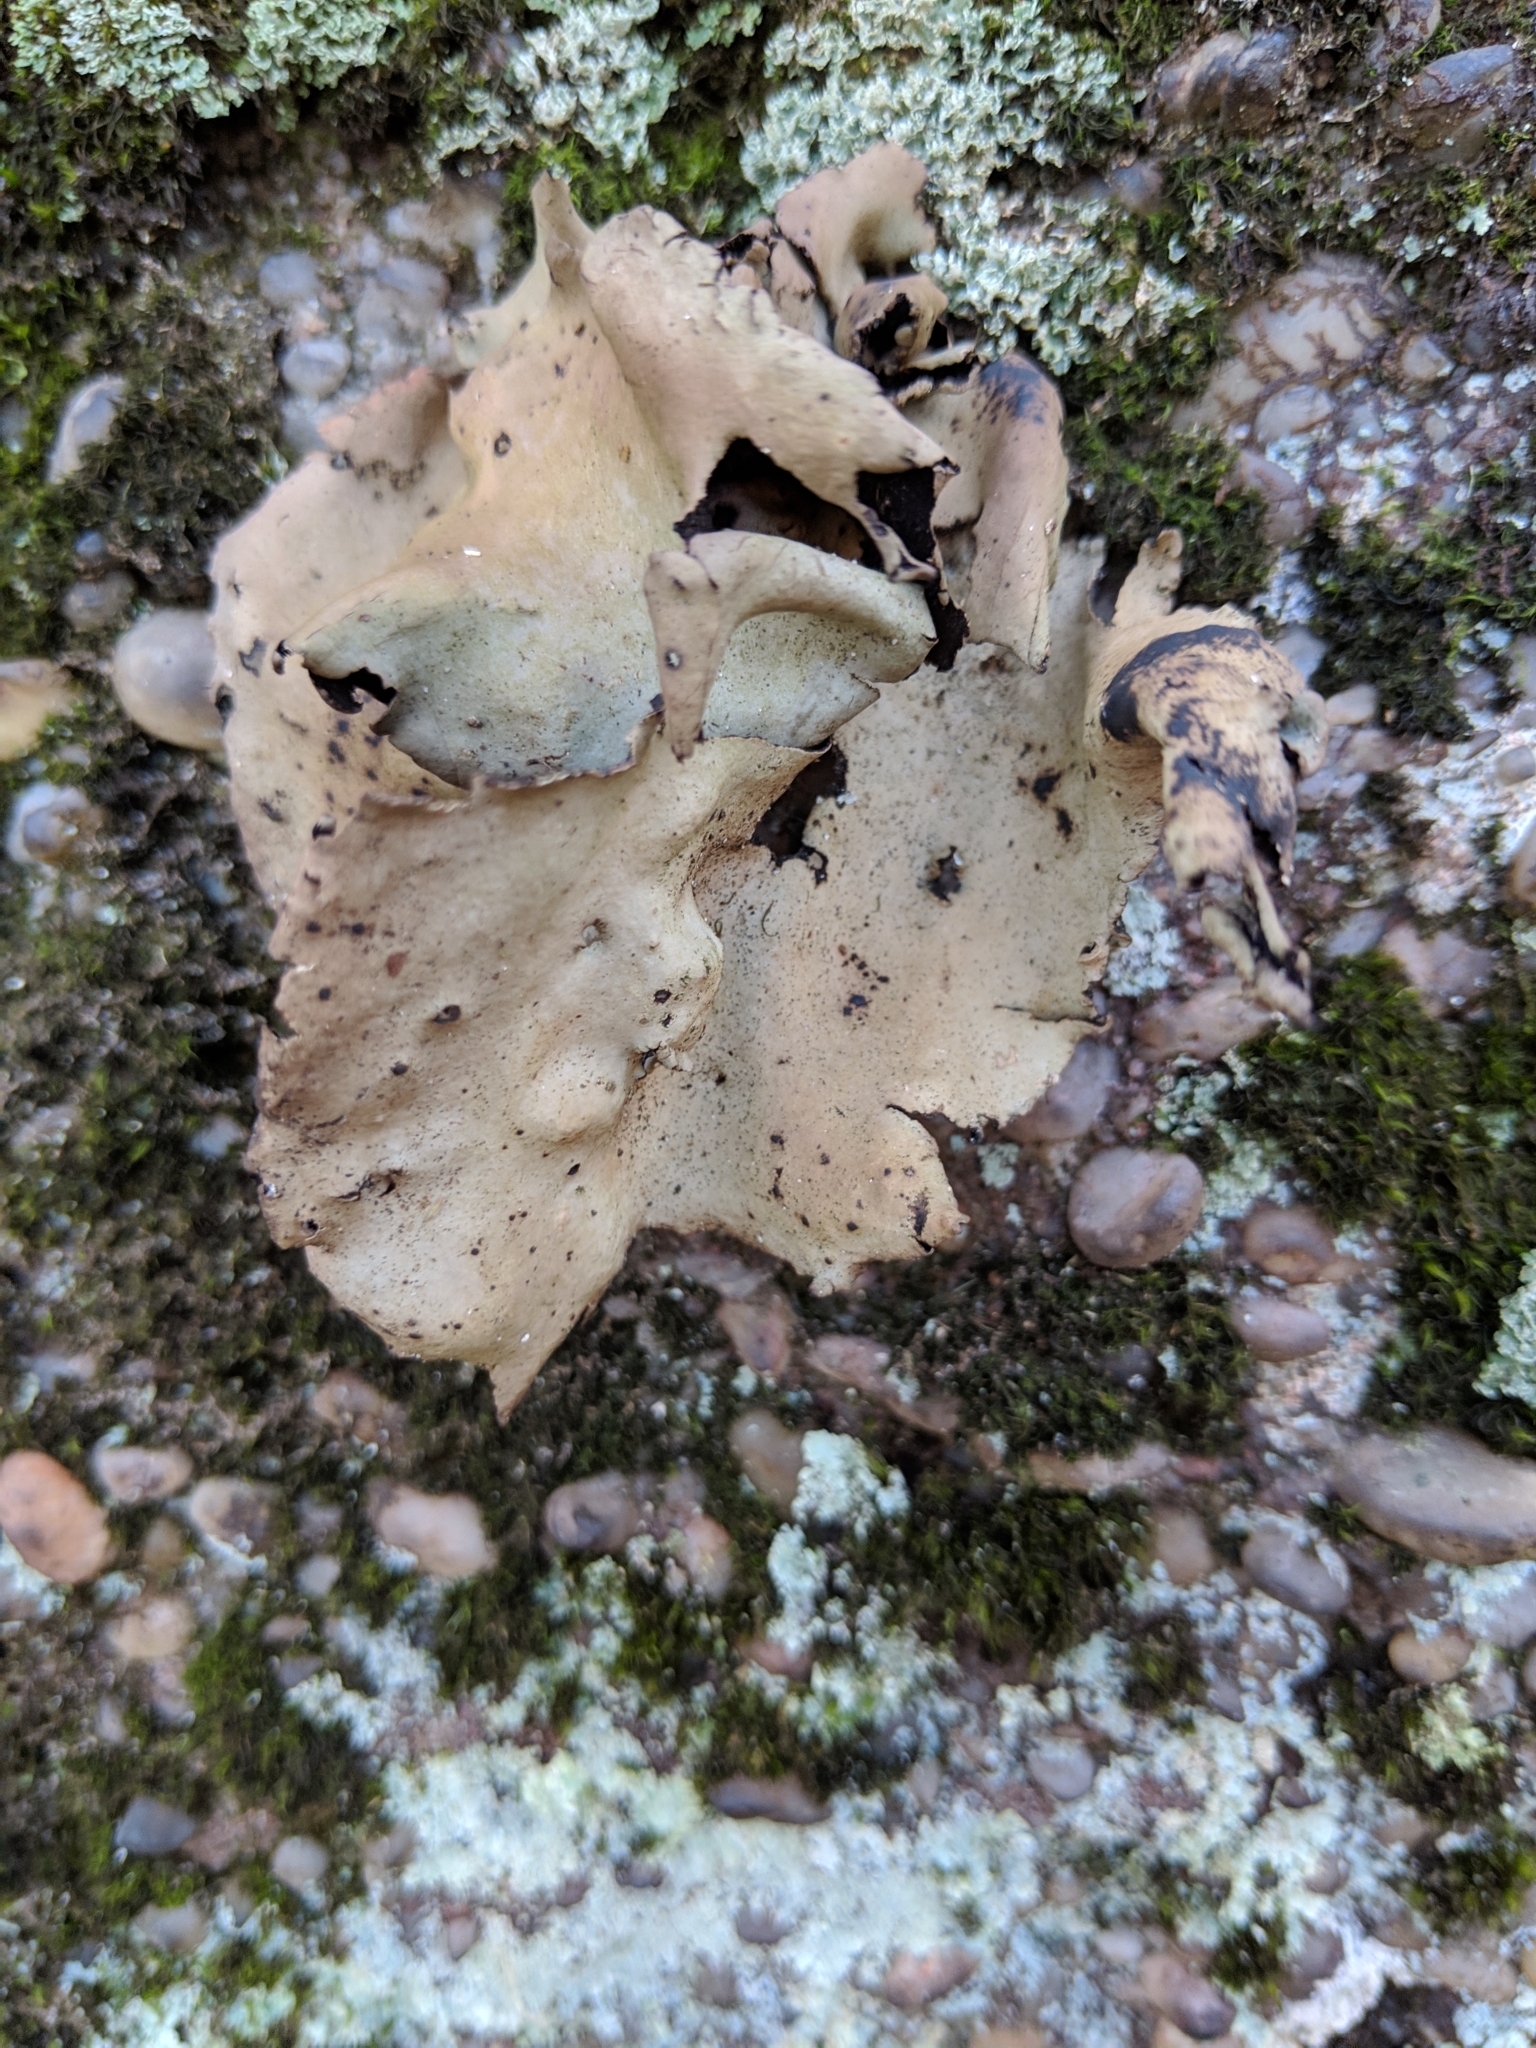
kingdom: Fungi
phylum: Ascomycota
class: Lecanoromycetes
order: Umbilicariales
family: Umbilicariaceae
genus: Umbilicaria
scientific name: Umbilicaria mammulata
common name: Smooth rock tripe
